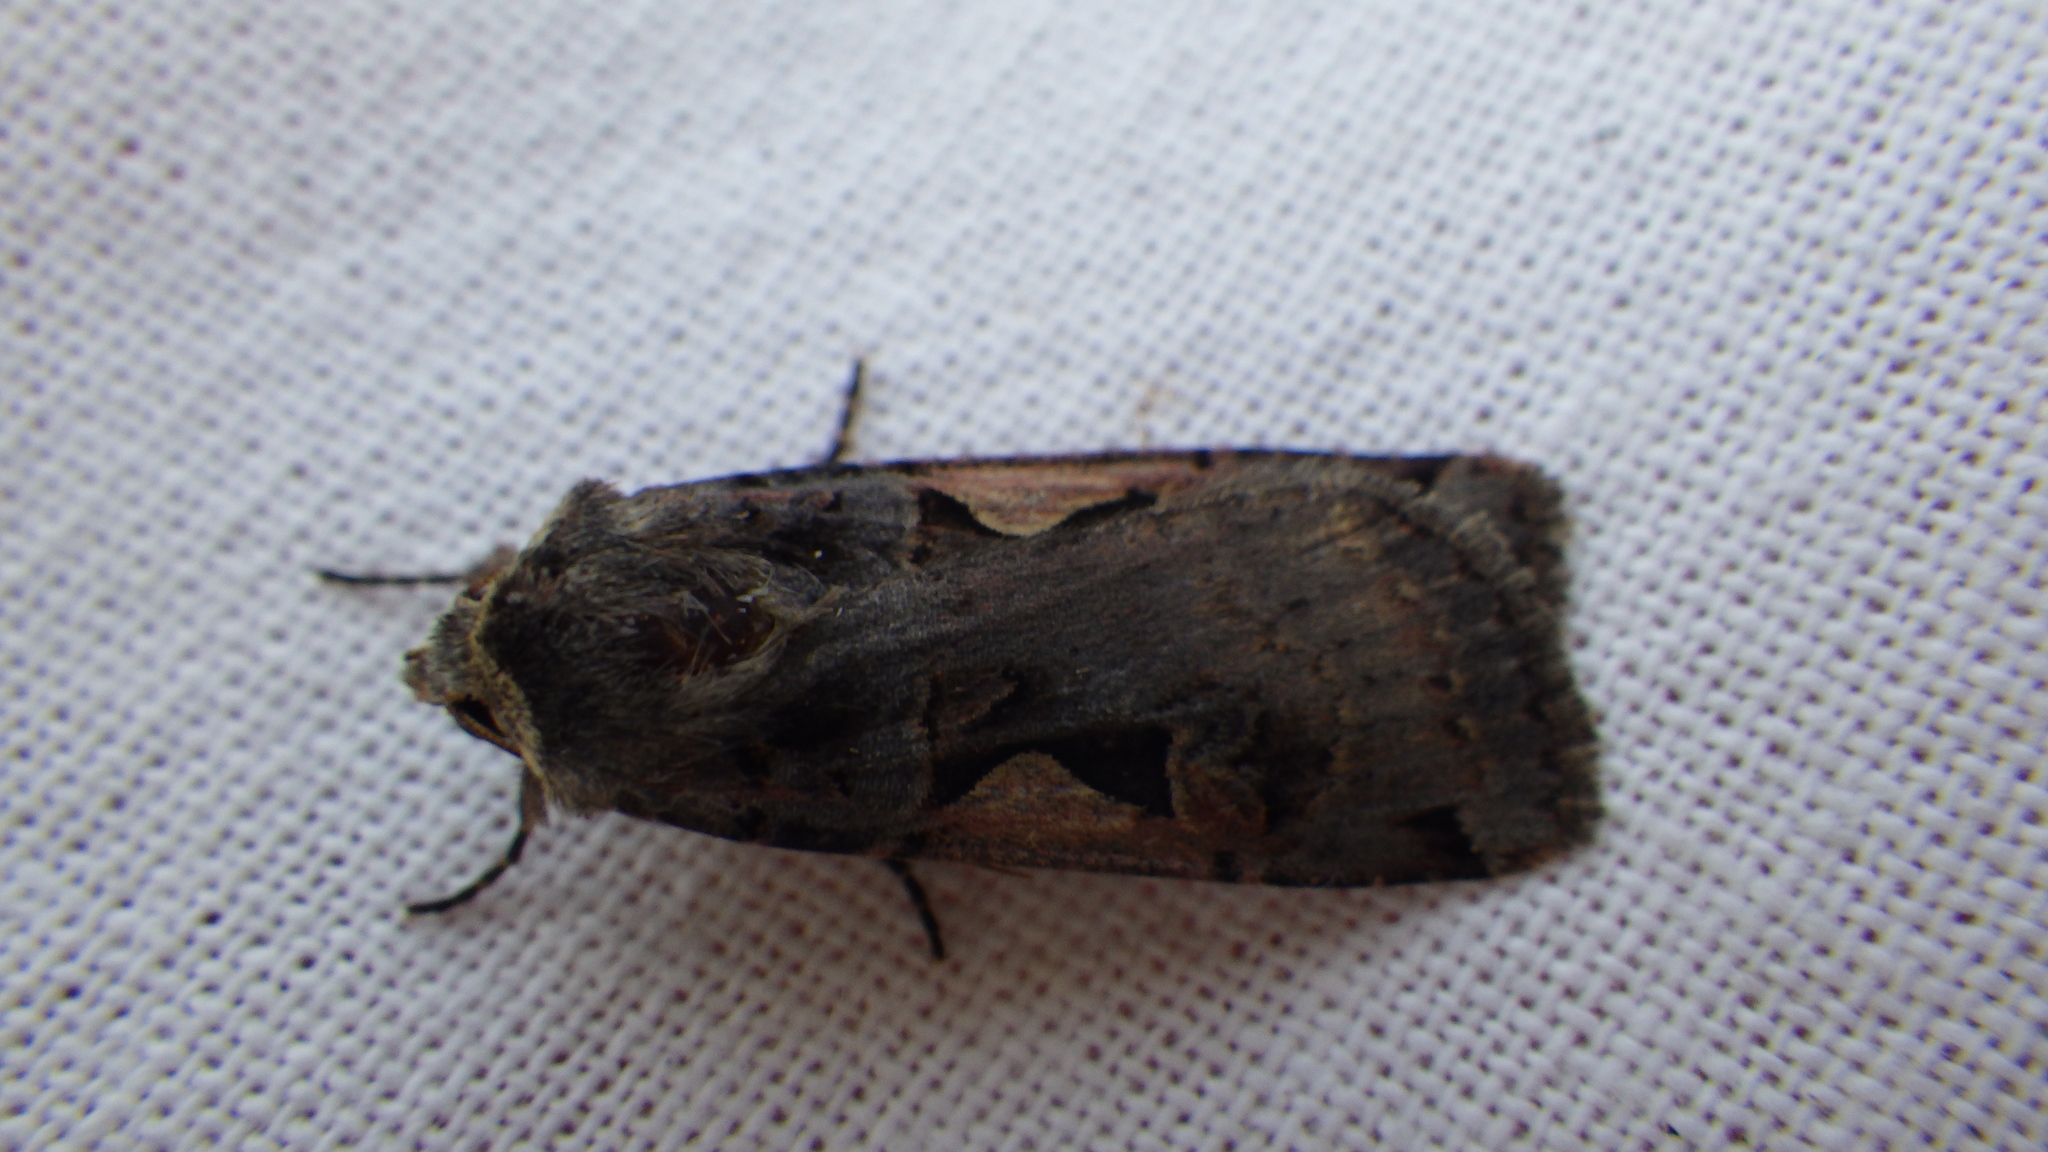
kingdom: Animalia
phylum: Arthropoda
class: Insecta
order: Lepidoptera
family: Noctuidae
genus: Xestia
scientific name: Xestia c-nigrum
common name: Setaceous hebrew character
